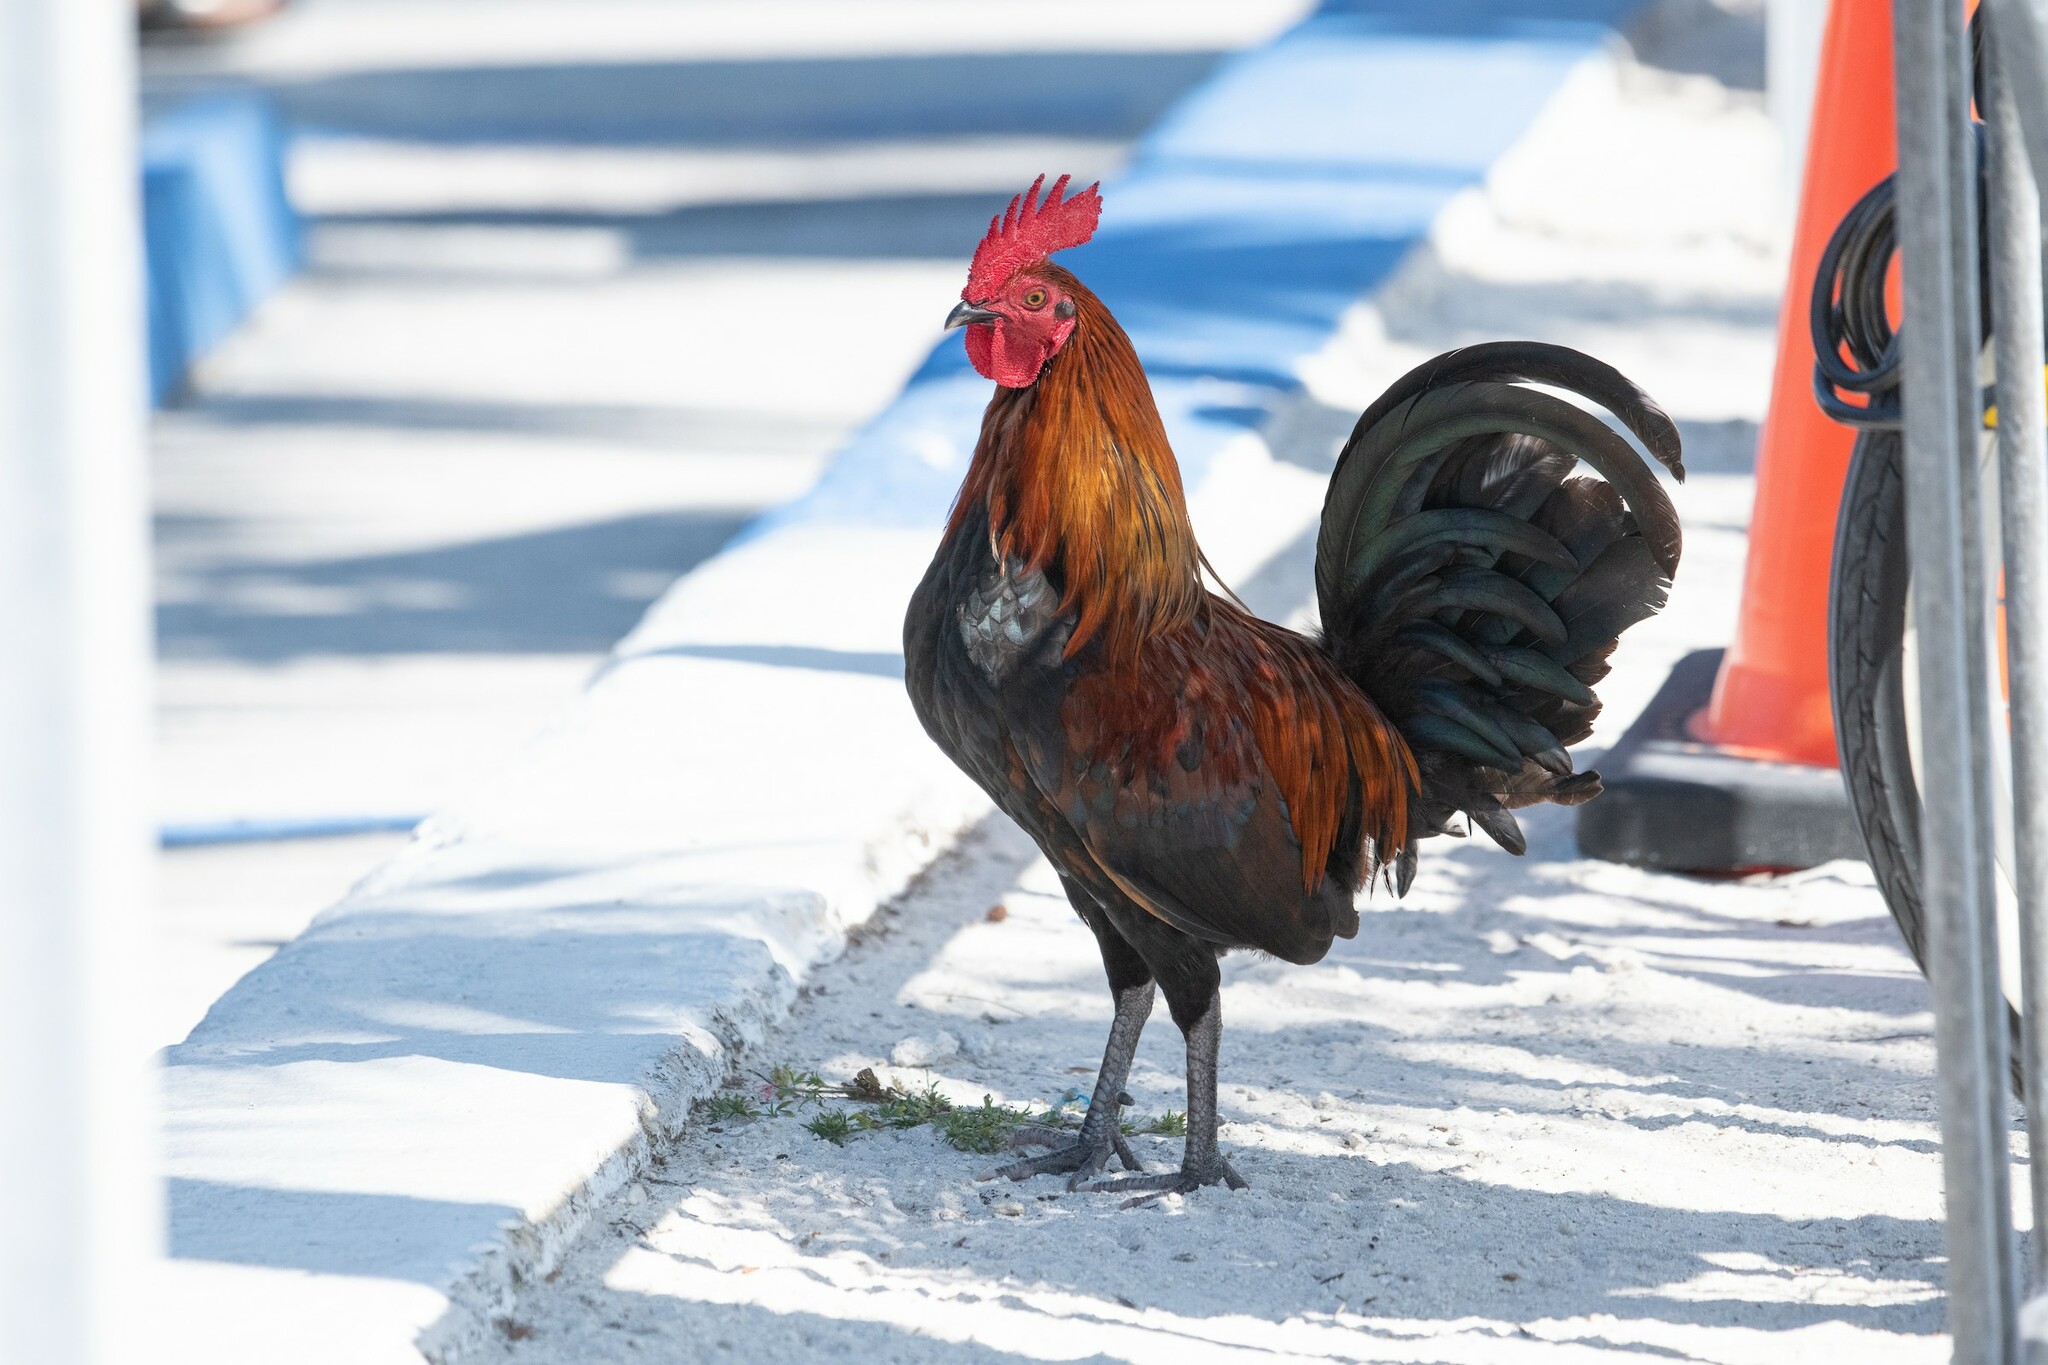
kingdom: Animalia
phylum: Chordata
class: Aves
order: Galliformes
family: Phasianidae
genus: Gallus
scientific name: Gallus gallus
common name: Red junglefowl
